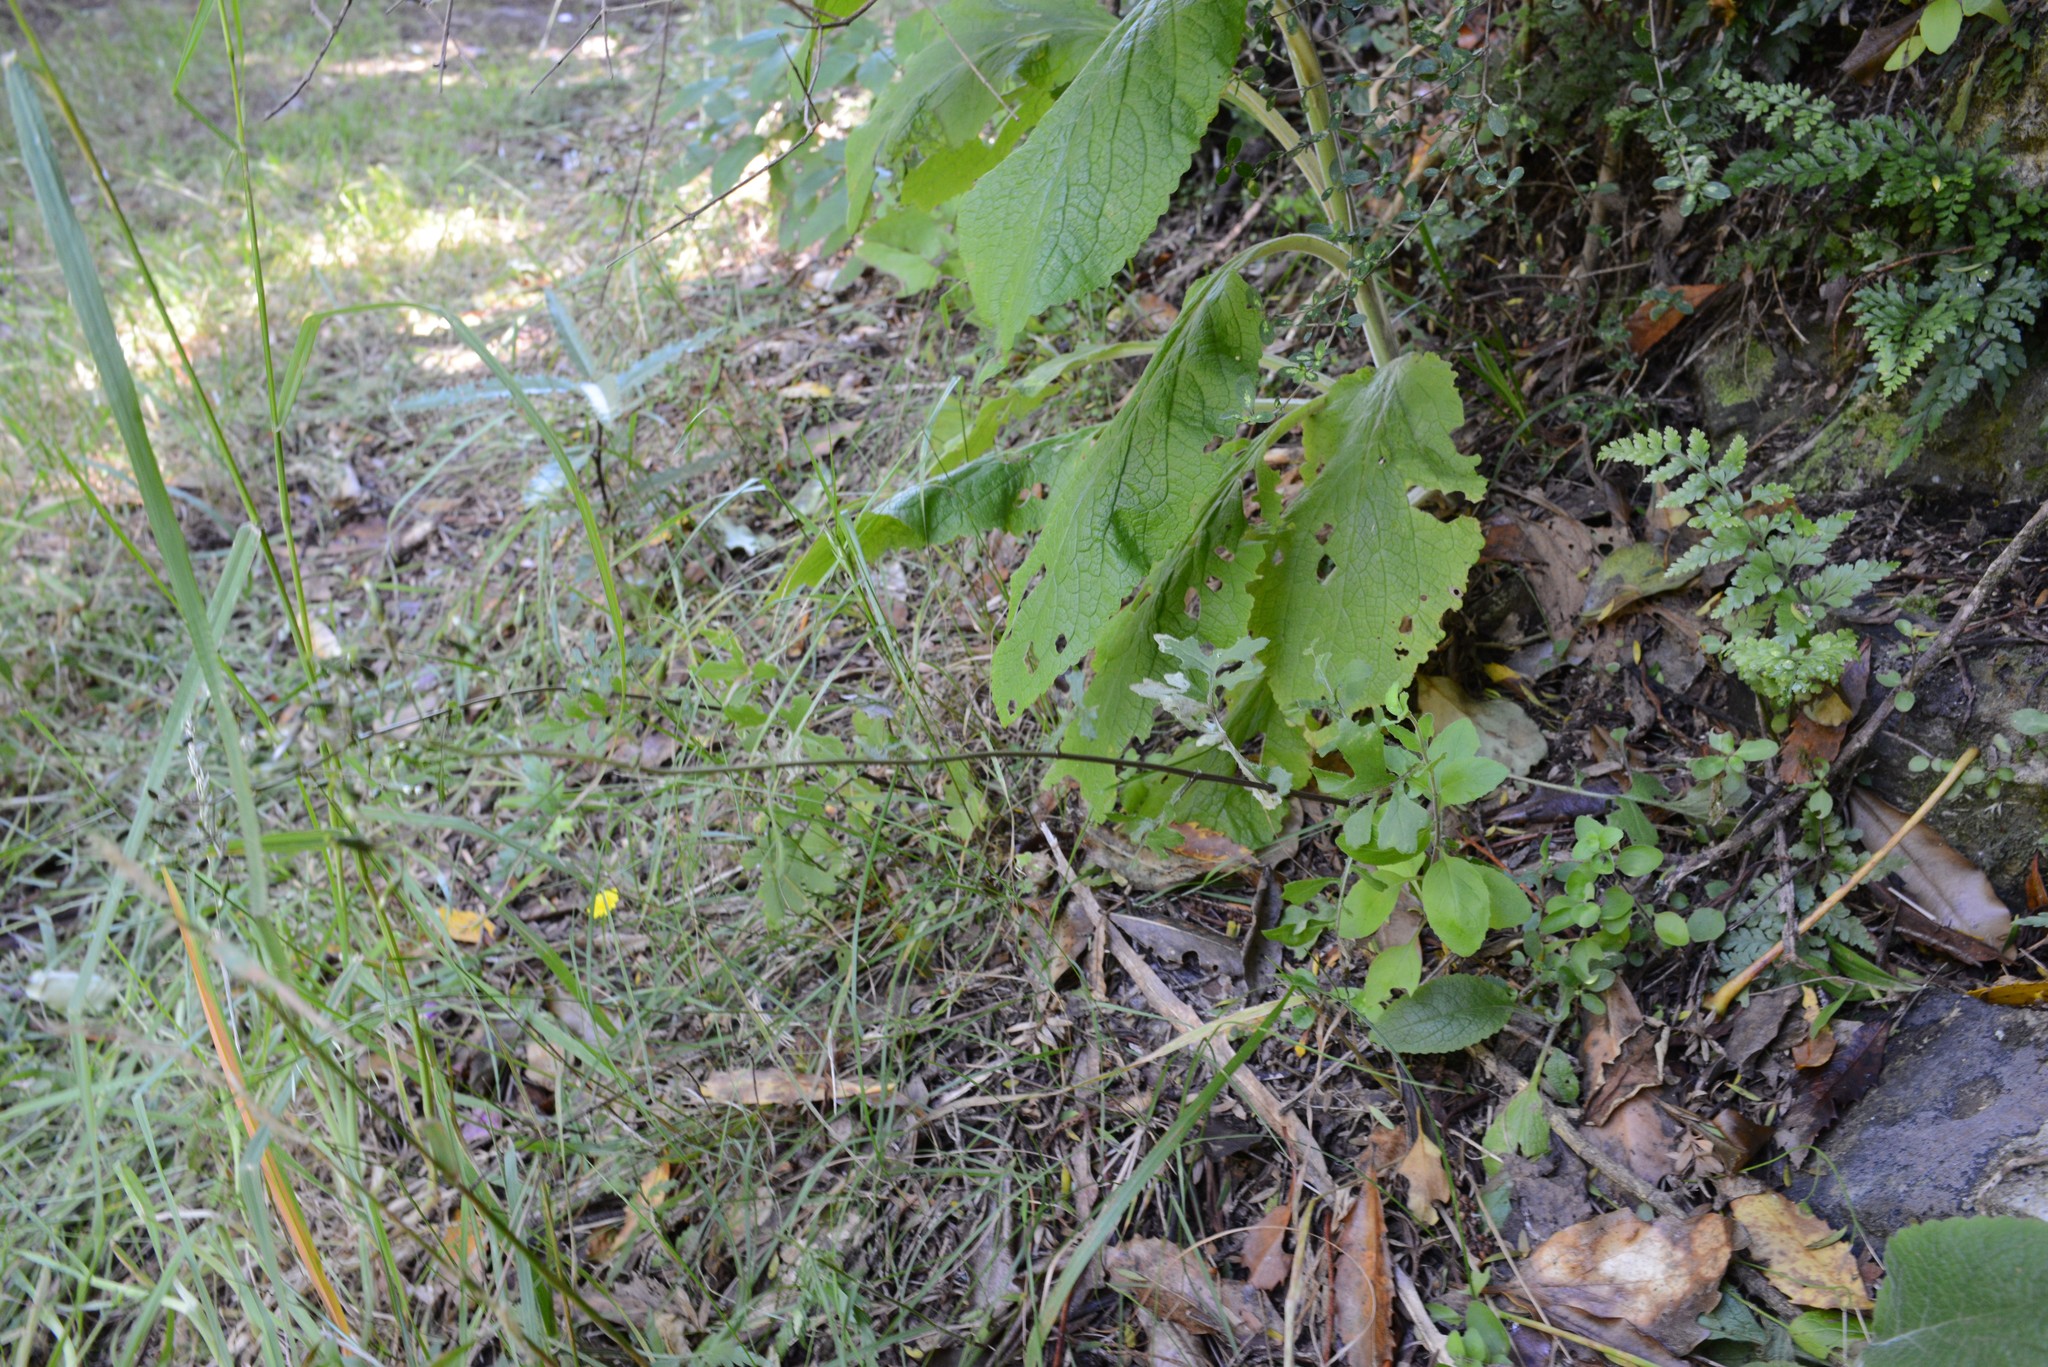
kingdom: Plantae
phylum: Tracheophyta
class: Magnoliopsida
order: Asterales
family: Asteraceae
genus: Senecio
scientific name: Senecio wairauensis
